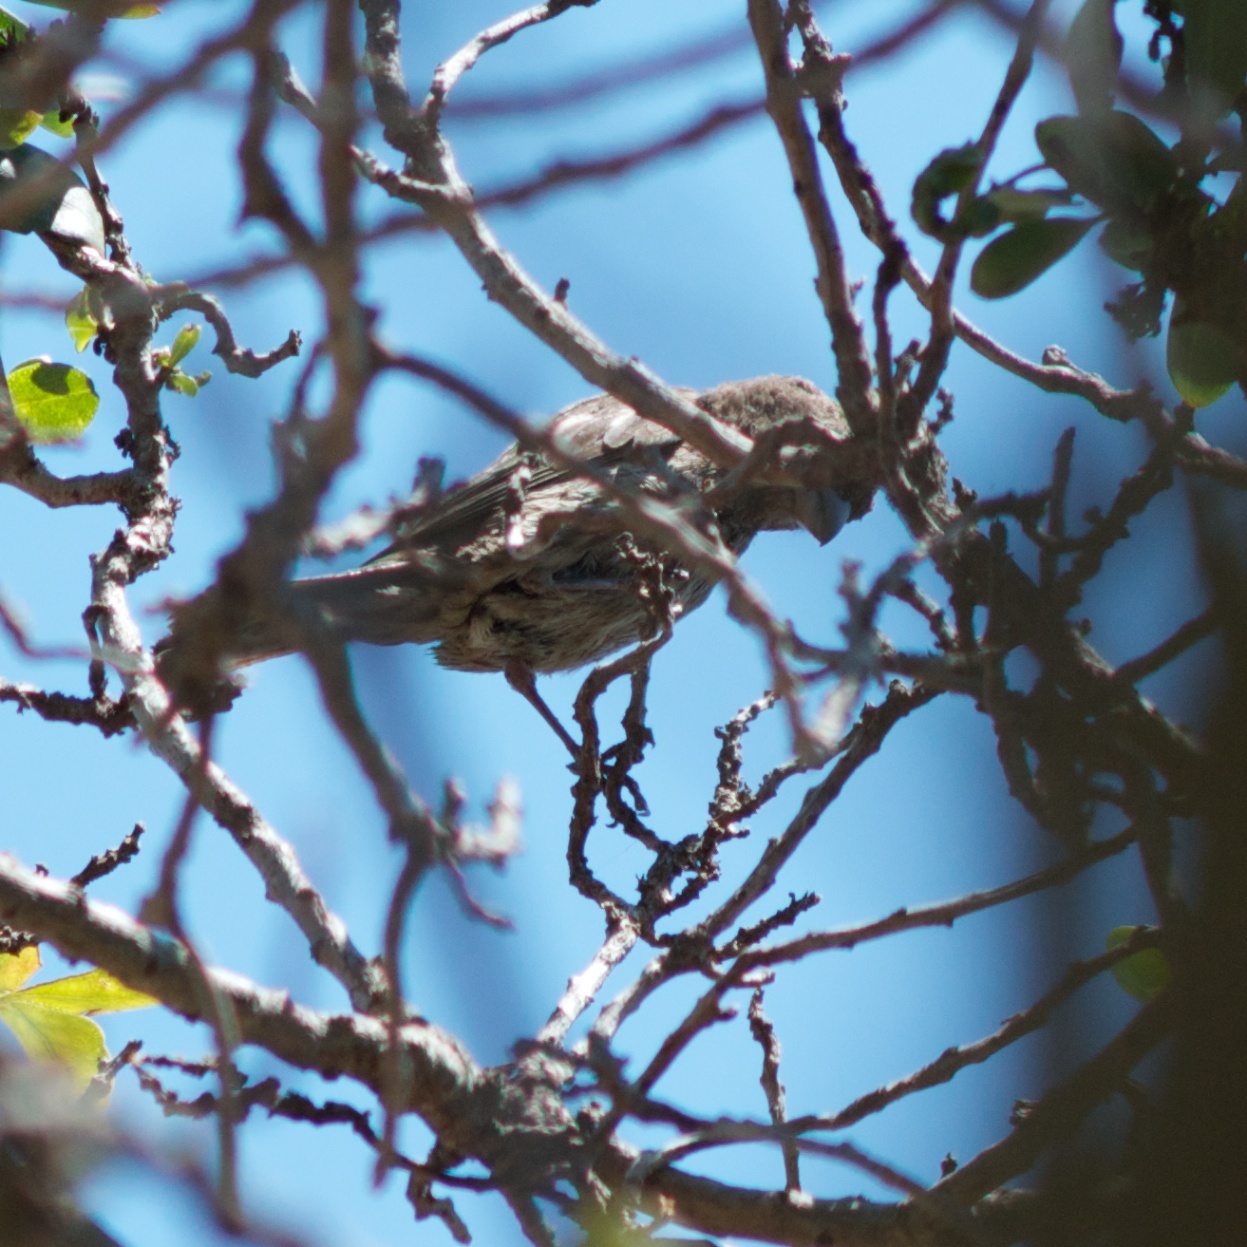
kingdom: Animalia
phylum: Chordata
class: Aves
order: Passeriformes
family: Fringillidae
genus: Haemorhous
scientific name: Haemorhous mexicanus
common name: House finch
